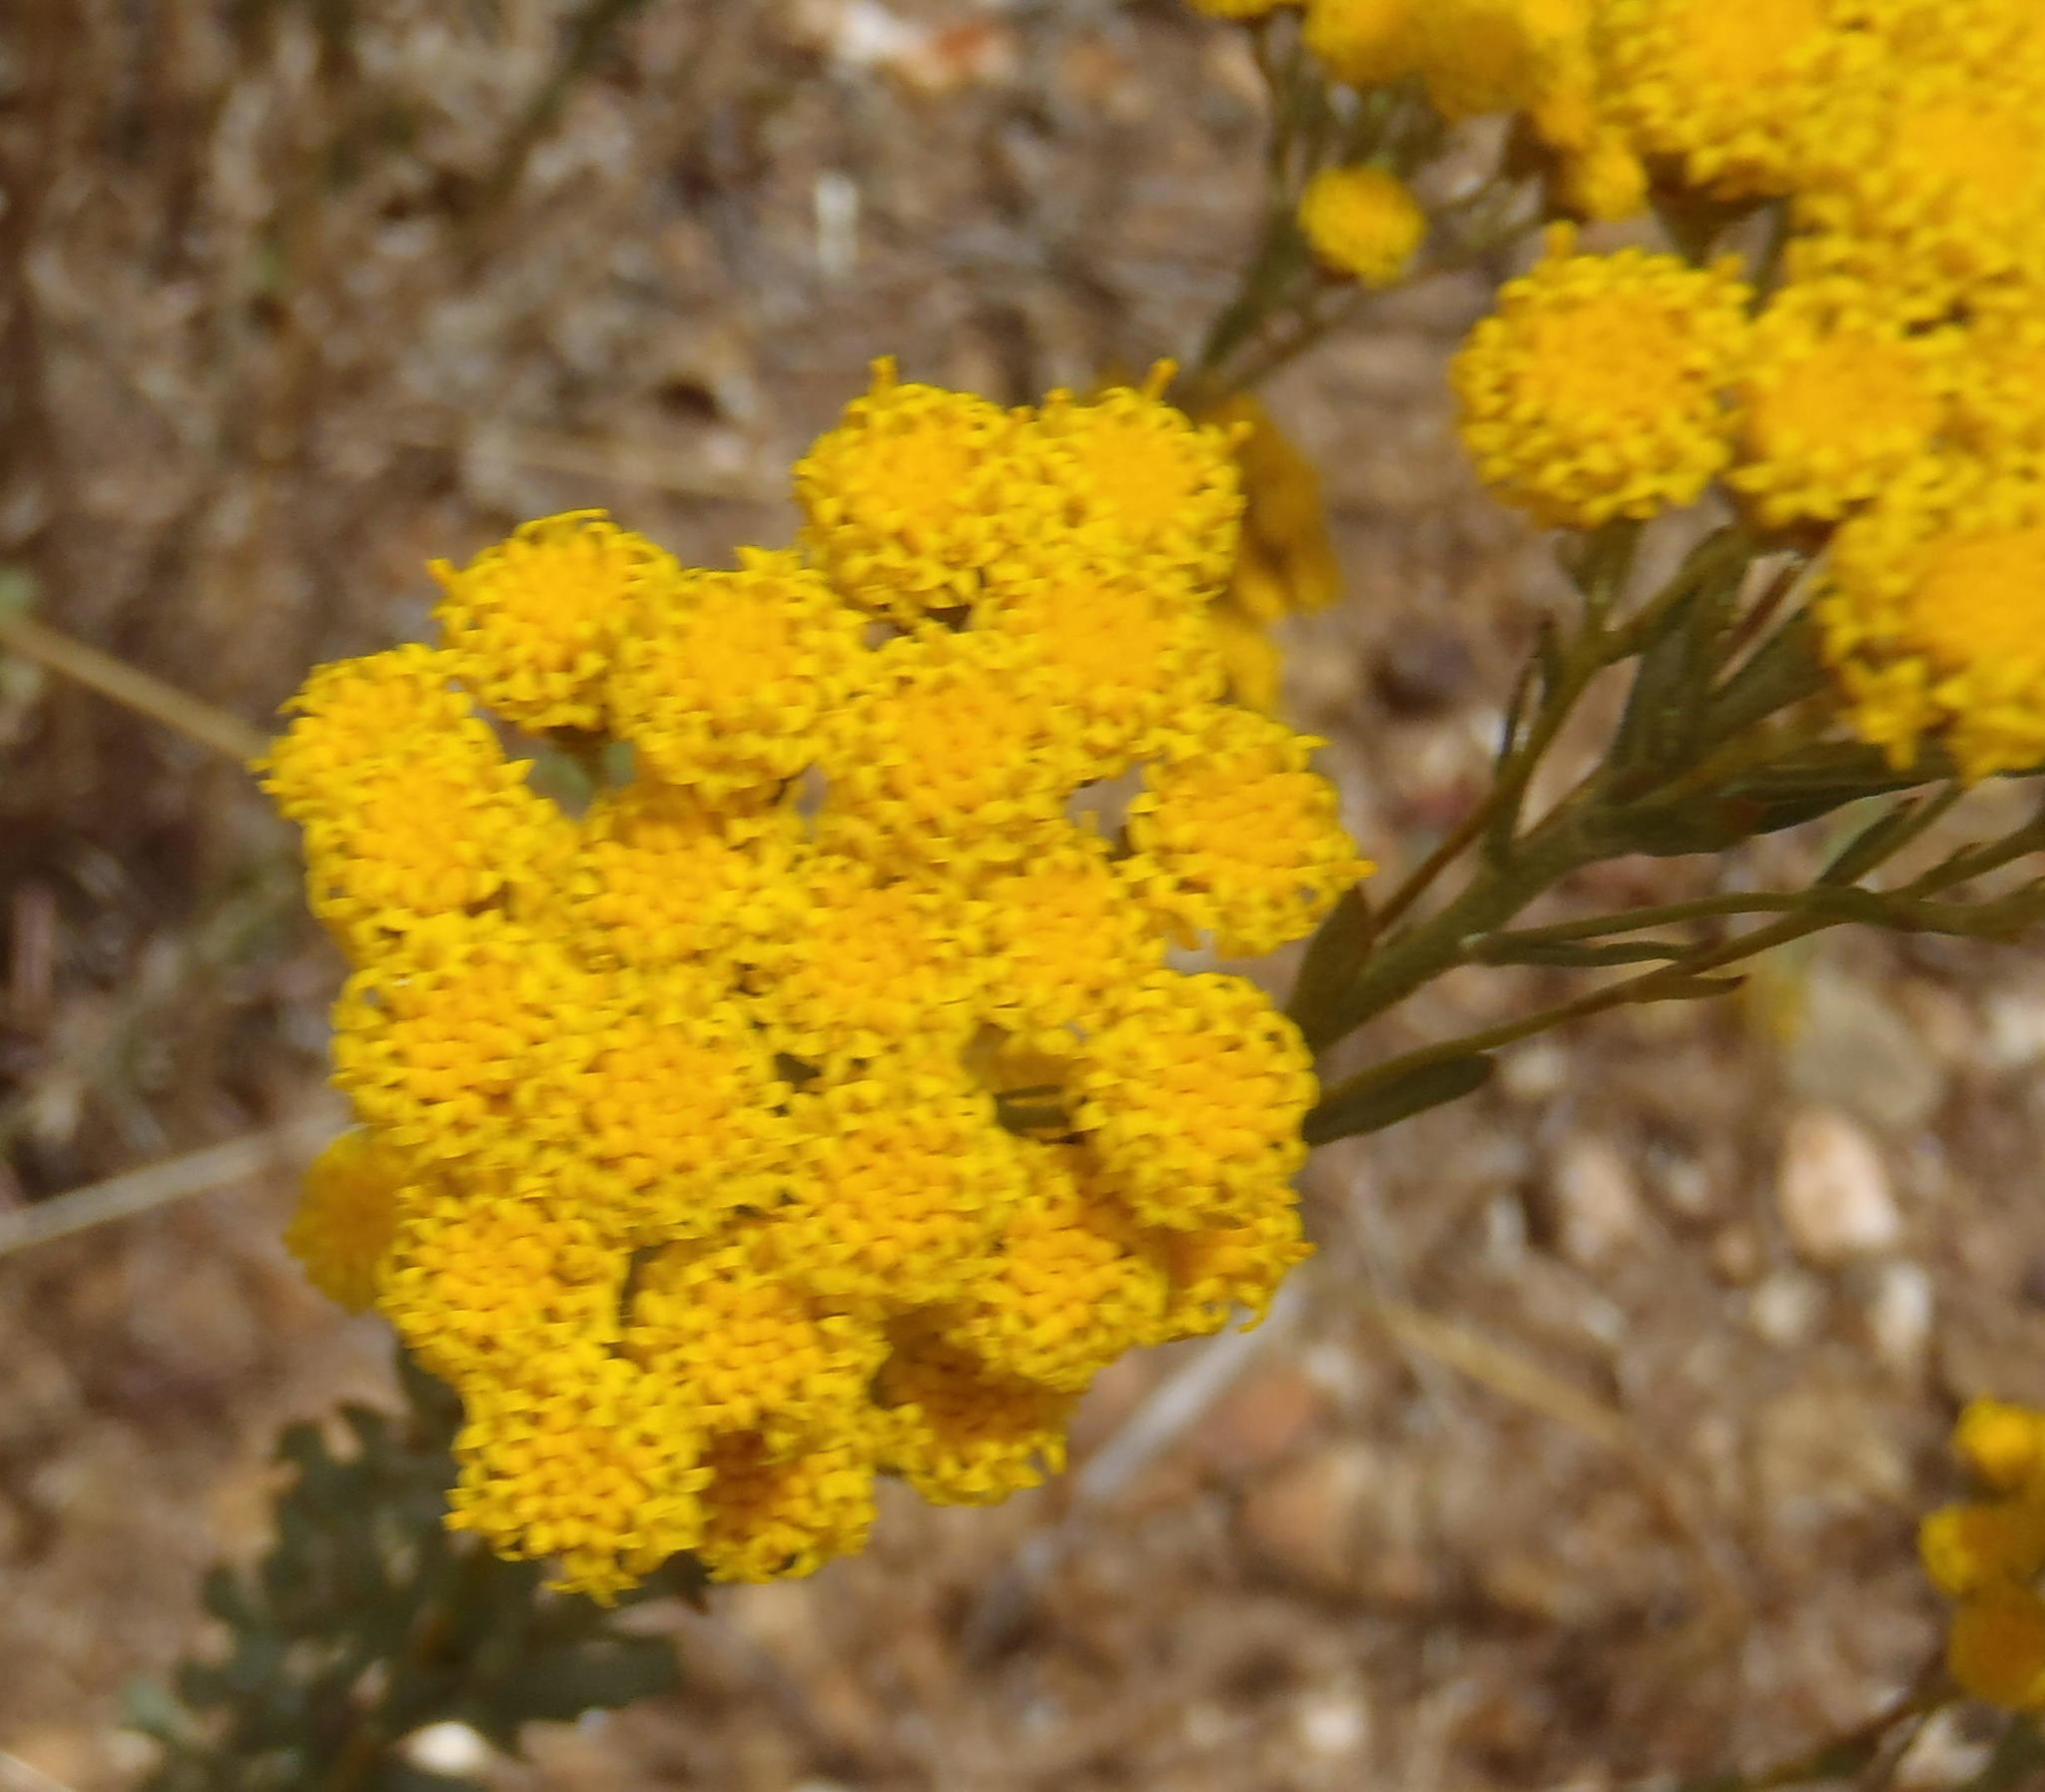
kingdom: Plantae
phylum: Tracheophyta
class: Magnoliopsida
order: Asterales
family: Asteraceae
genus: Athanasia
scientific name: Athanasia oocephala
